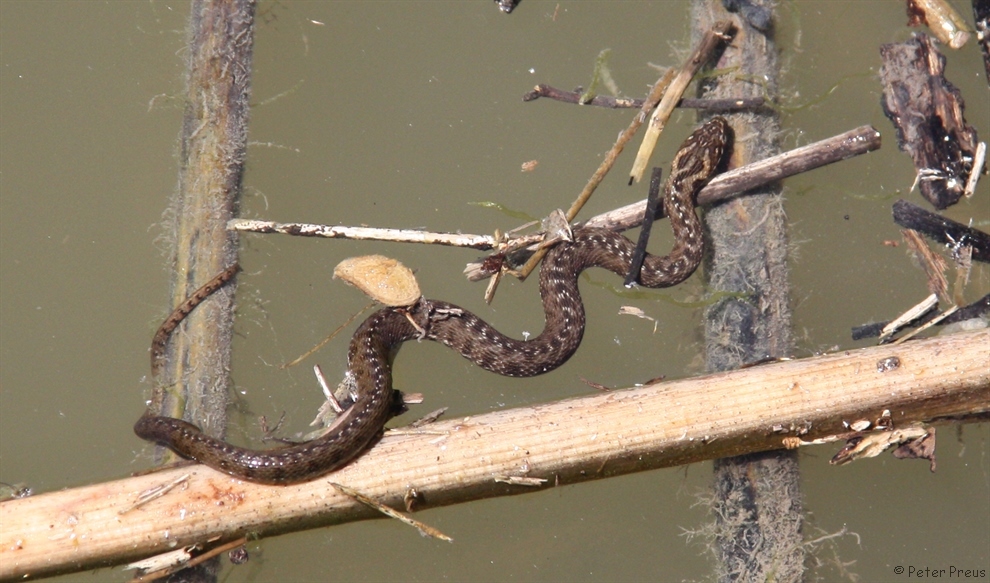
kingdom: Animalia
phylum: Chordata
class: Squamata
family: Colubridae
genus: Natrix
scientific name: Natrix maura
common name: Viperine water snake
